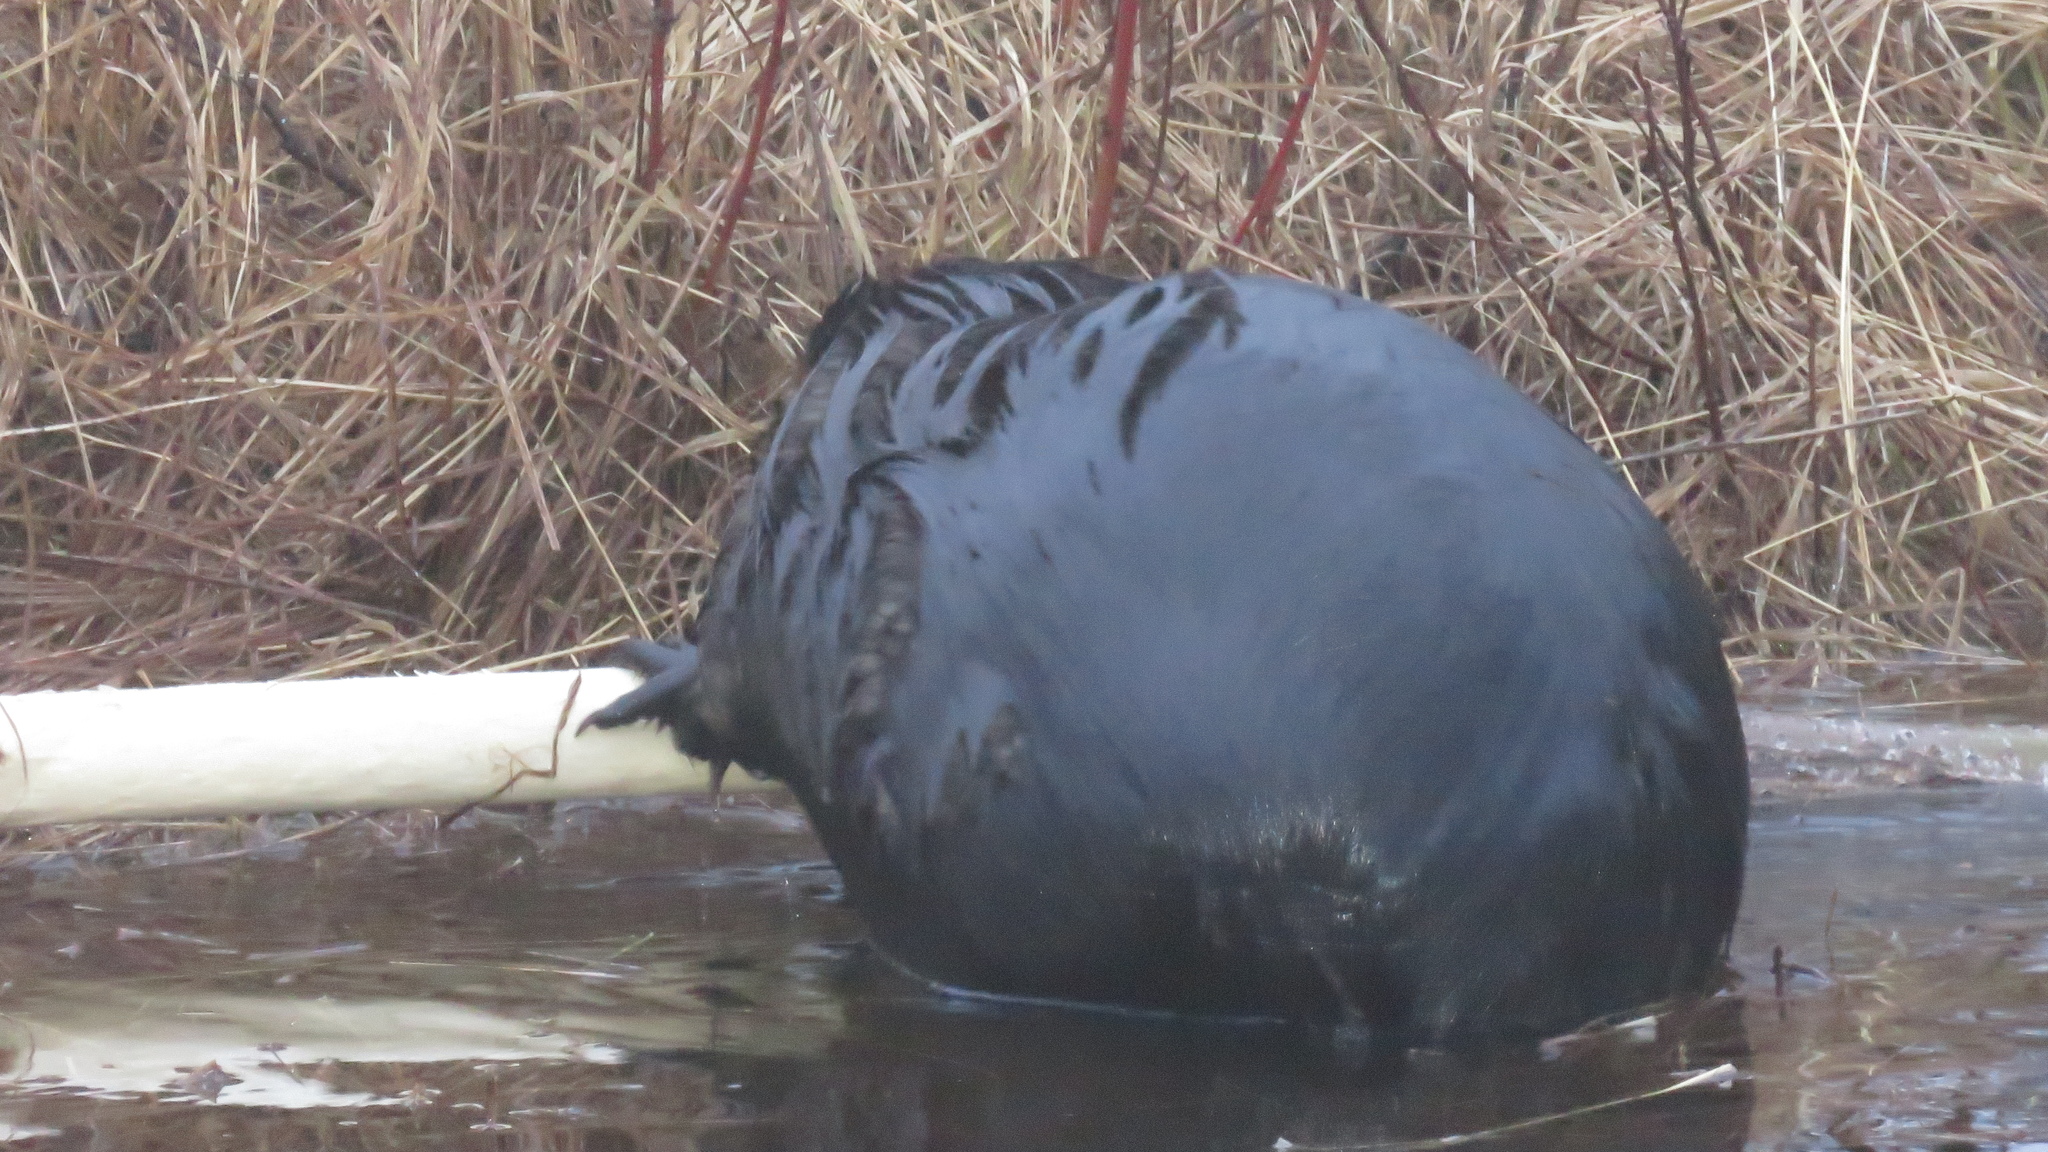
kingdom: Animalia
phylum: Chordata
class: Mammalia
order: Rodentia
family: Castoridae
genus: Castor
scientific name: Castor canadensis
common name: American beaver
